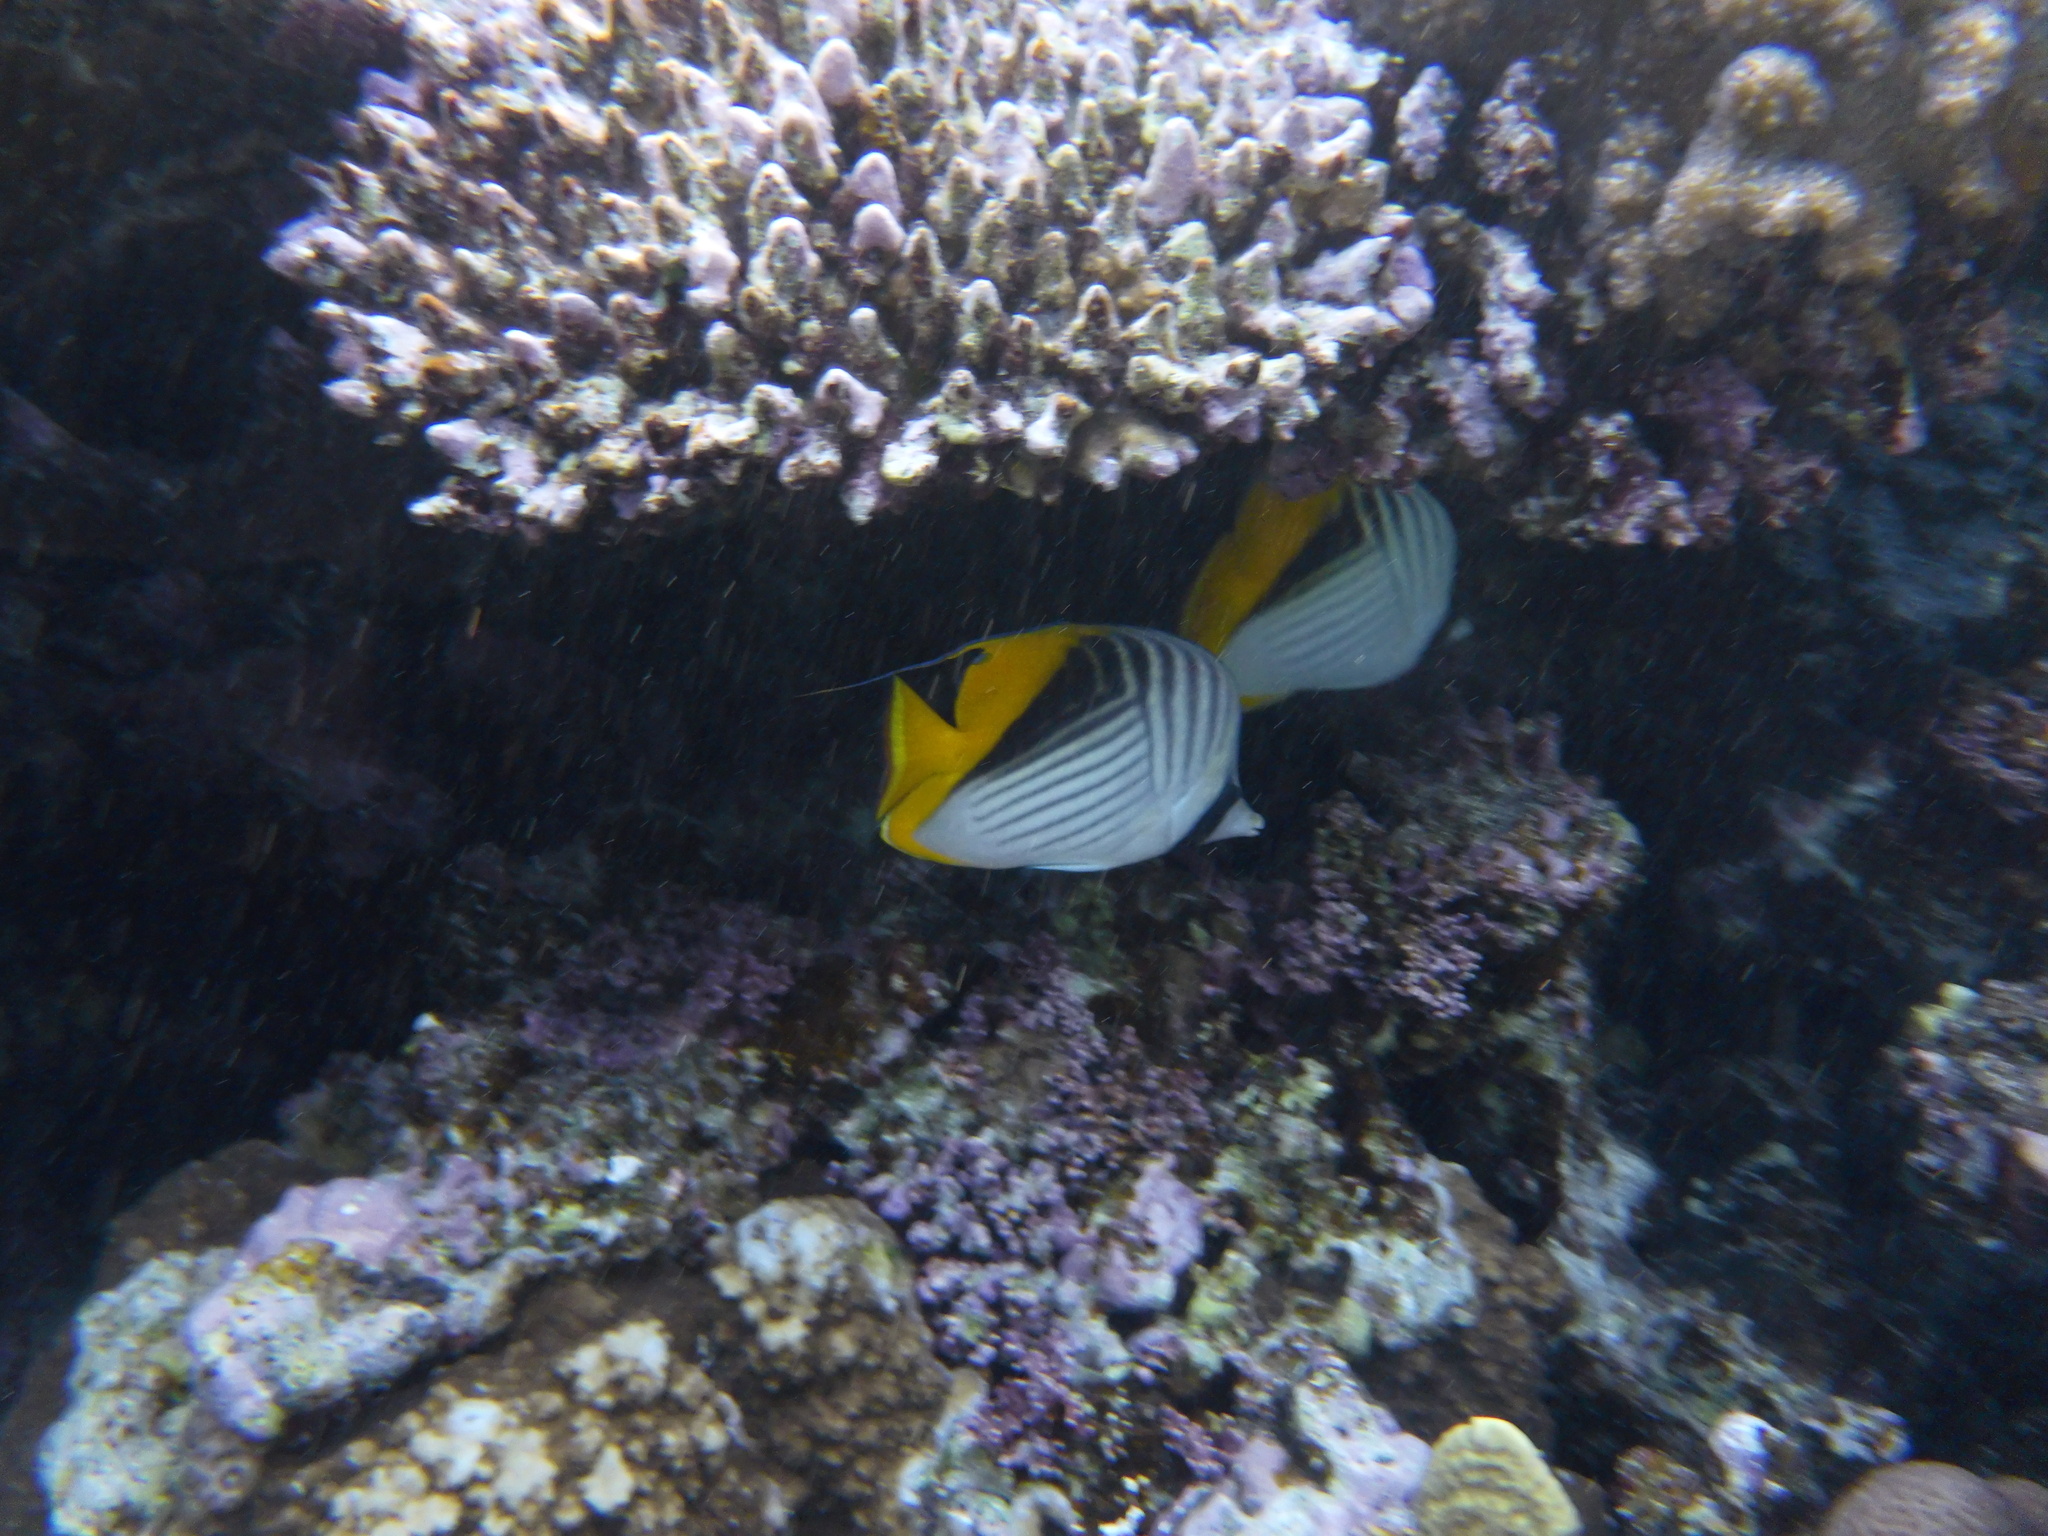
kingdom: Animalia
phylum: Chordata
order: Perciformes
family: Chaetodontidae
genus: Chaetodon
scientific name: Chaetodon auriga
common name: Threadfin butterflyfish
